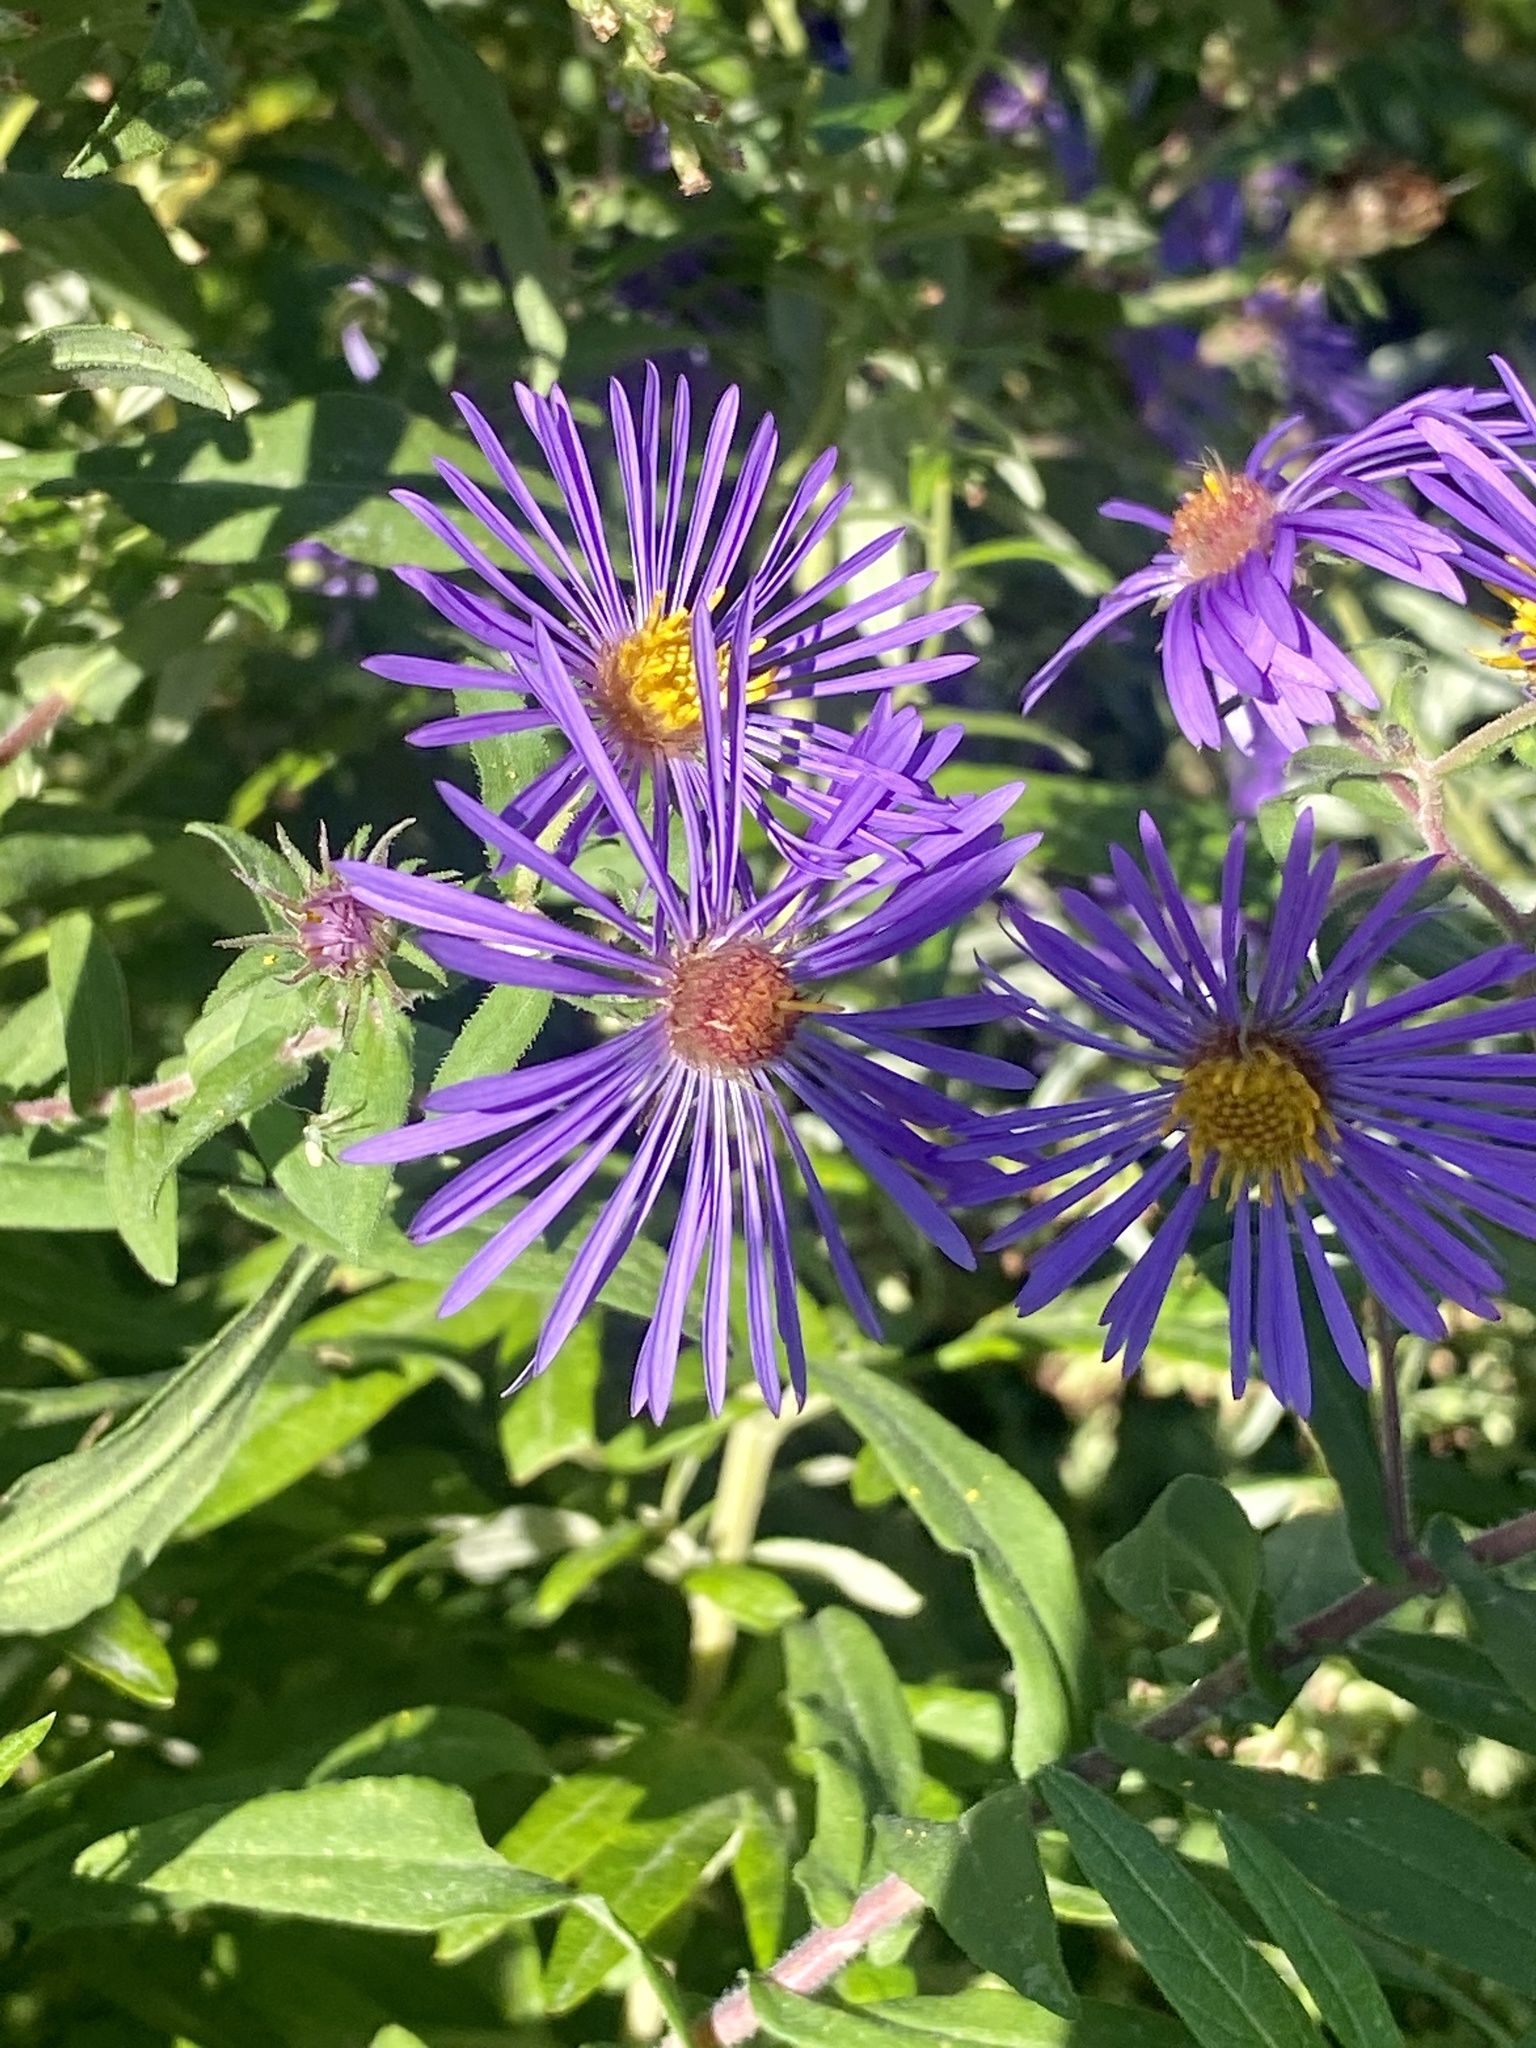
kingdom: Plantae
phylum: Tracheophyta
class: Magnoliopsida
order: Asterales
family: Asteraceae
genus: Symphyotrichum
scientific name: Symphyotrichum novae-angliae
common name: Michaelmas daisy
